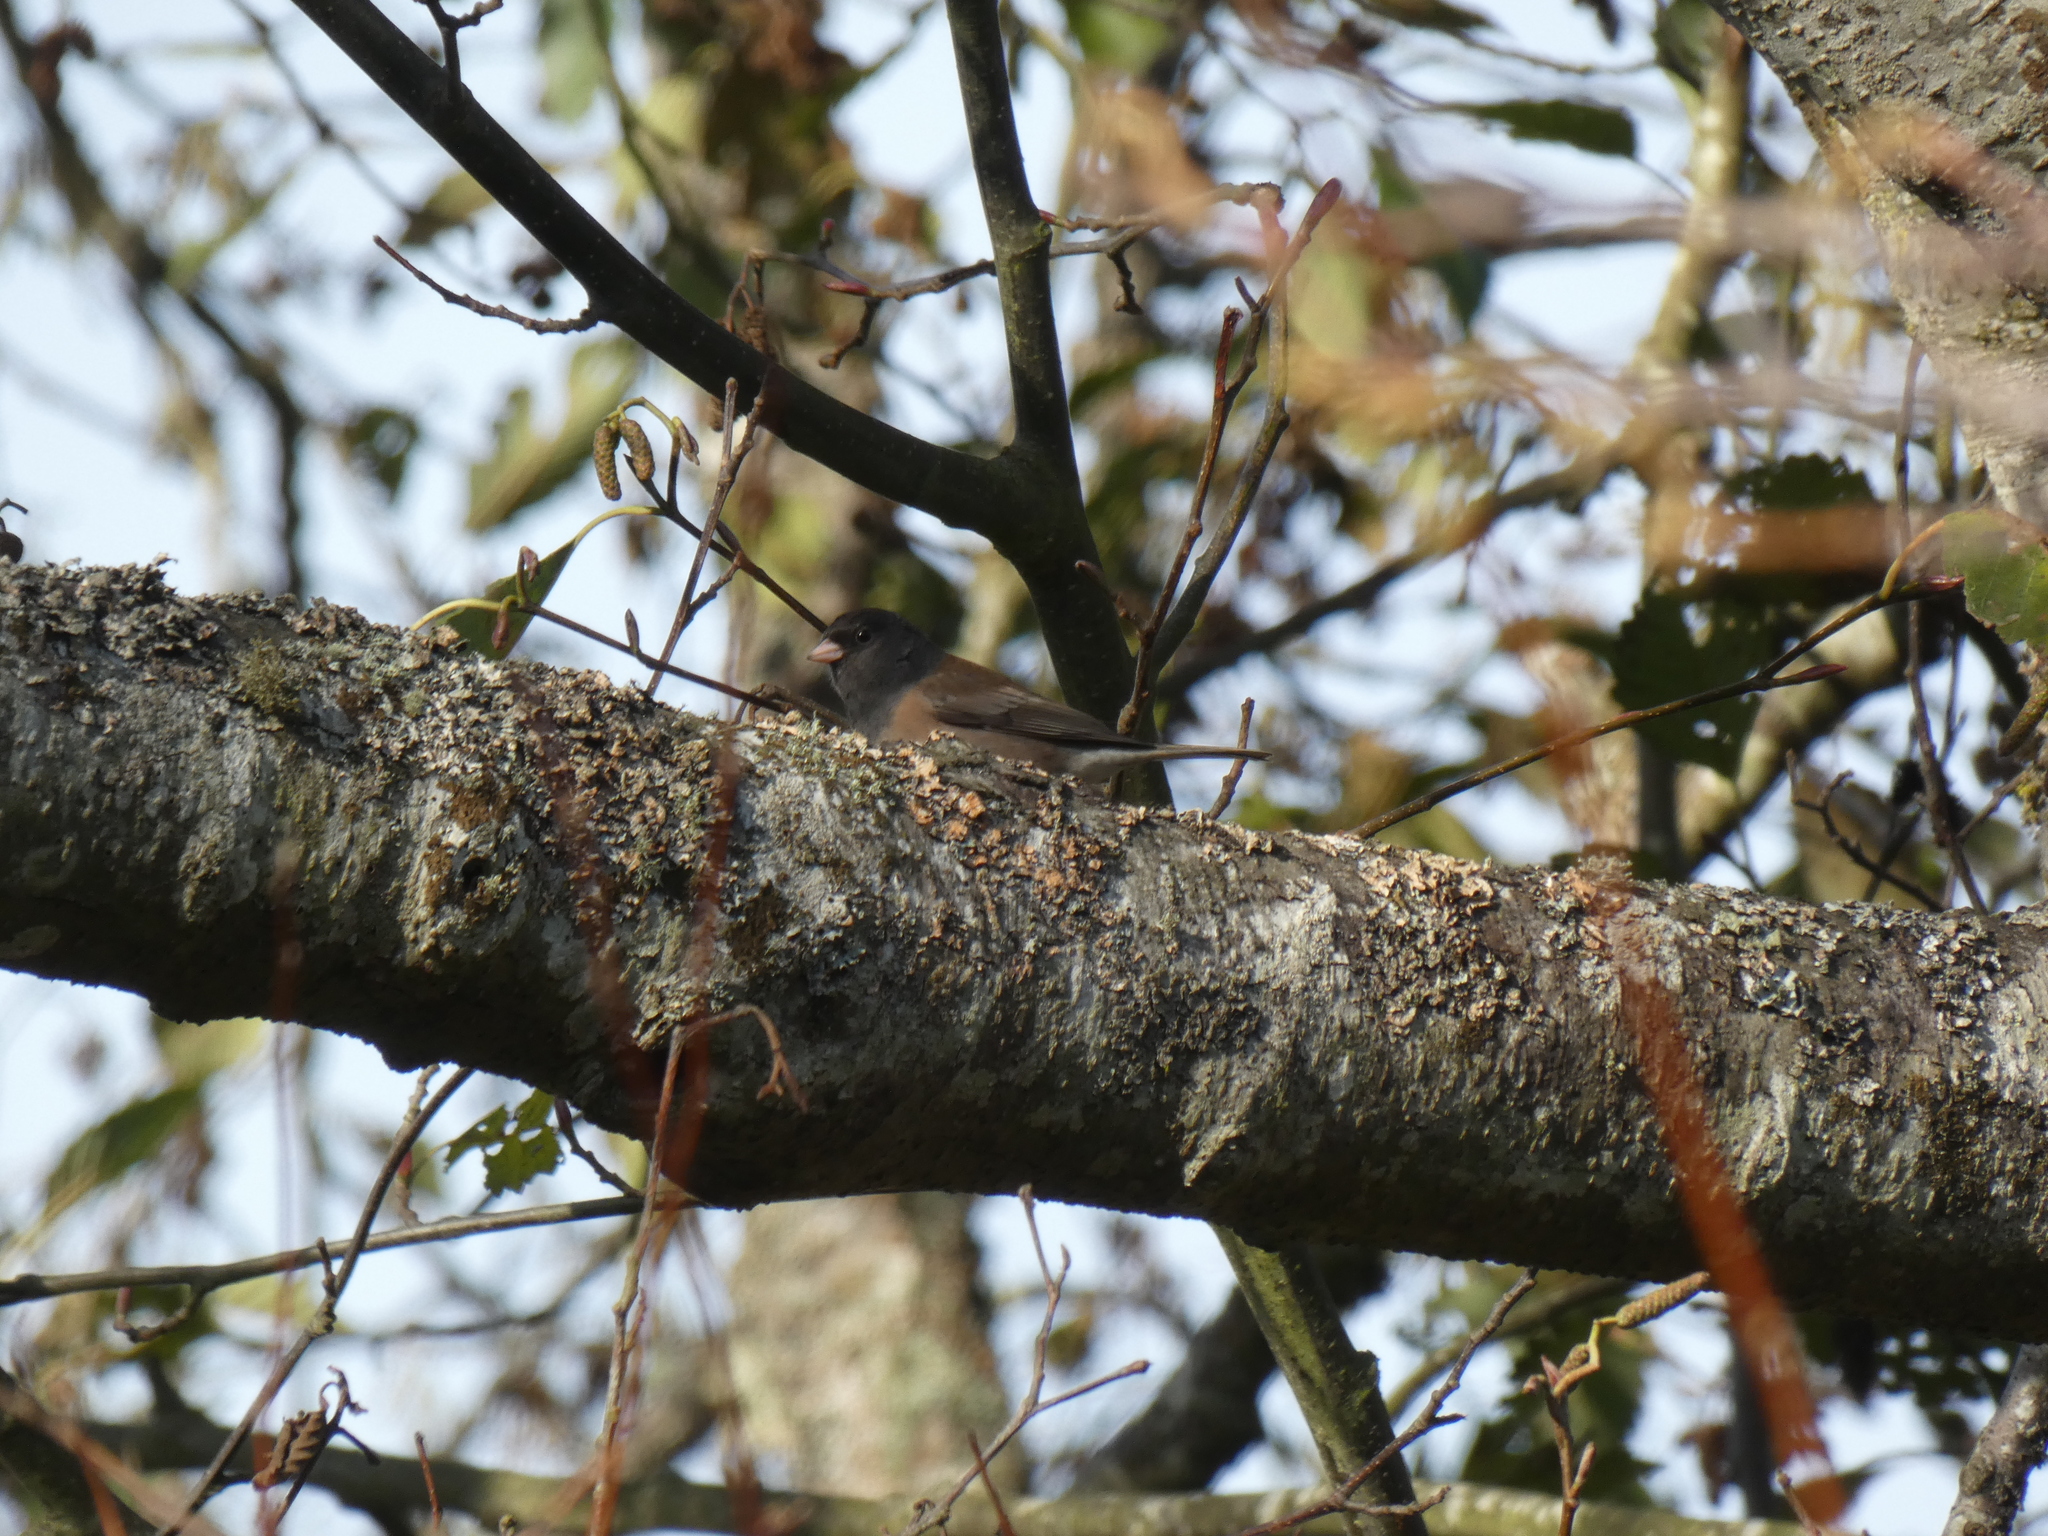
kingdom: Animalia
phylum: Chordata
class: Aves
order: Passeriformes
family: Passerellidae
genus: Junco
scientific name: Junco hyemalis
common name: Dark-eyed junco
